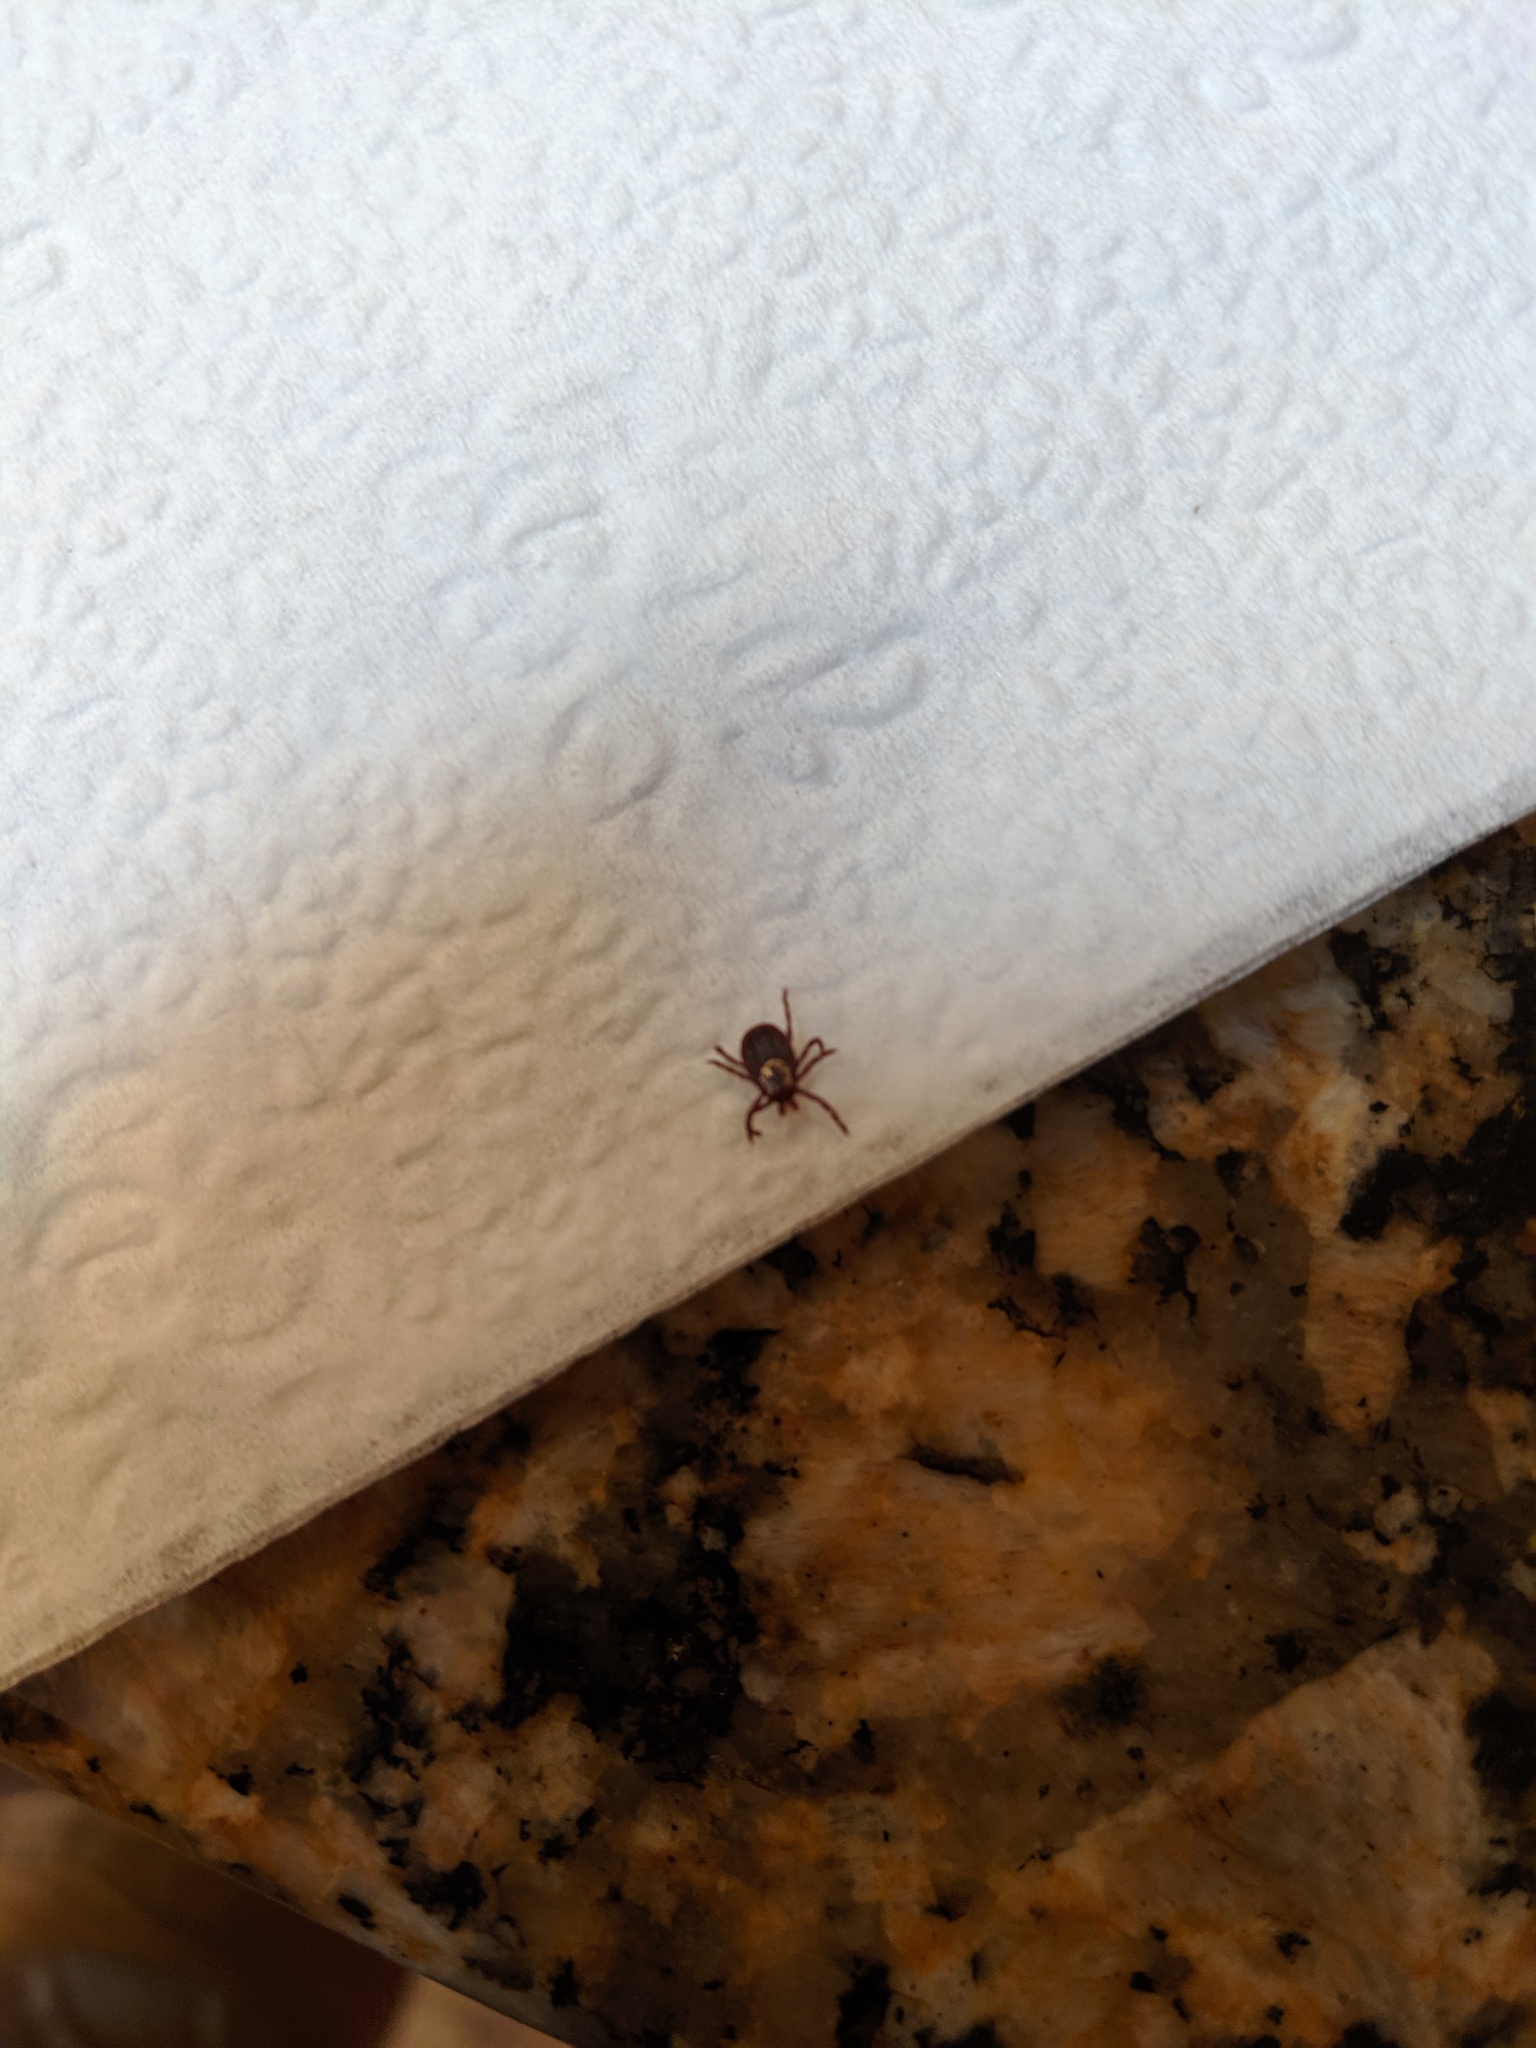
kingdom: Animalia
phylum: Arthropoda
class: Arachnida
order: Ixodida
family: Ixodidae
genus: Dermacentor
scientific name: Dermacentor variabilis
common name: American dog tick
